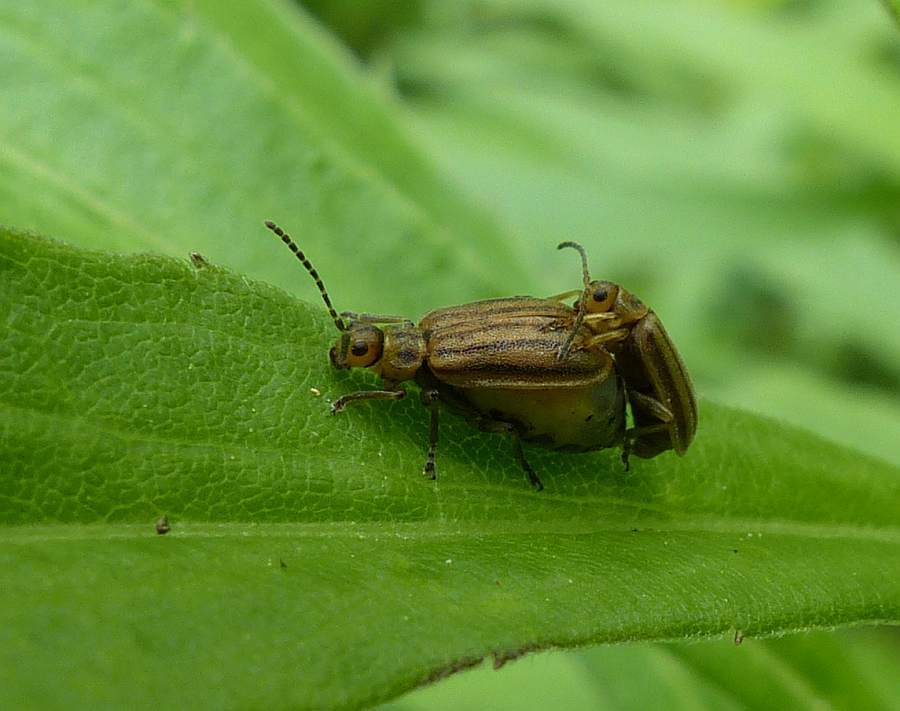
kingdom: Animalia
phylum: Arthropoda
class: Insecta
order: Coleoptera
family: Chrysomelidae
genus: Ophraella
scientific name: Ophraella conferta
